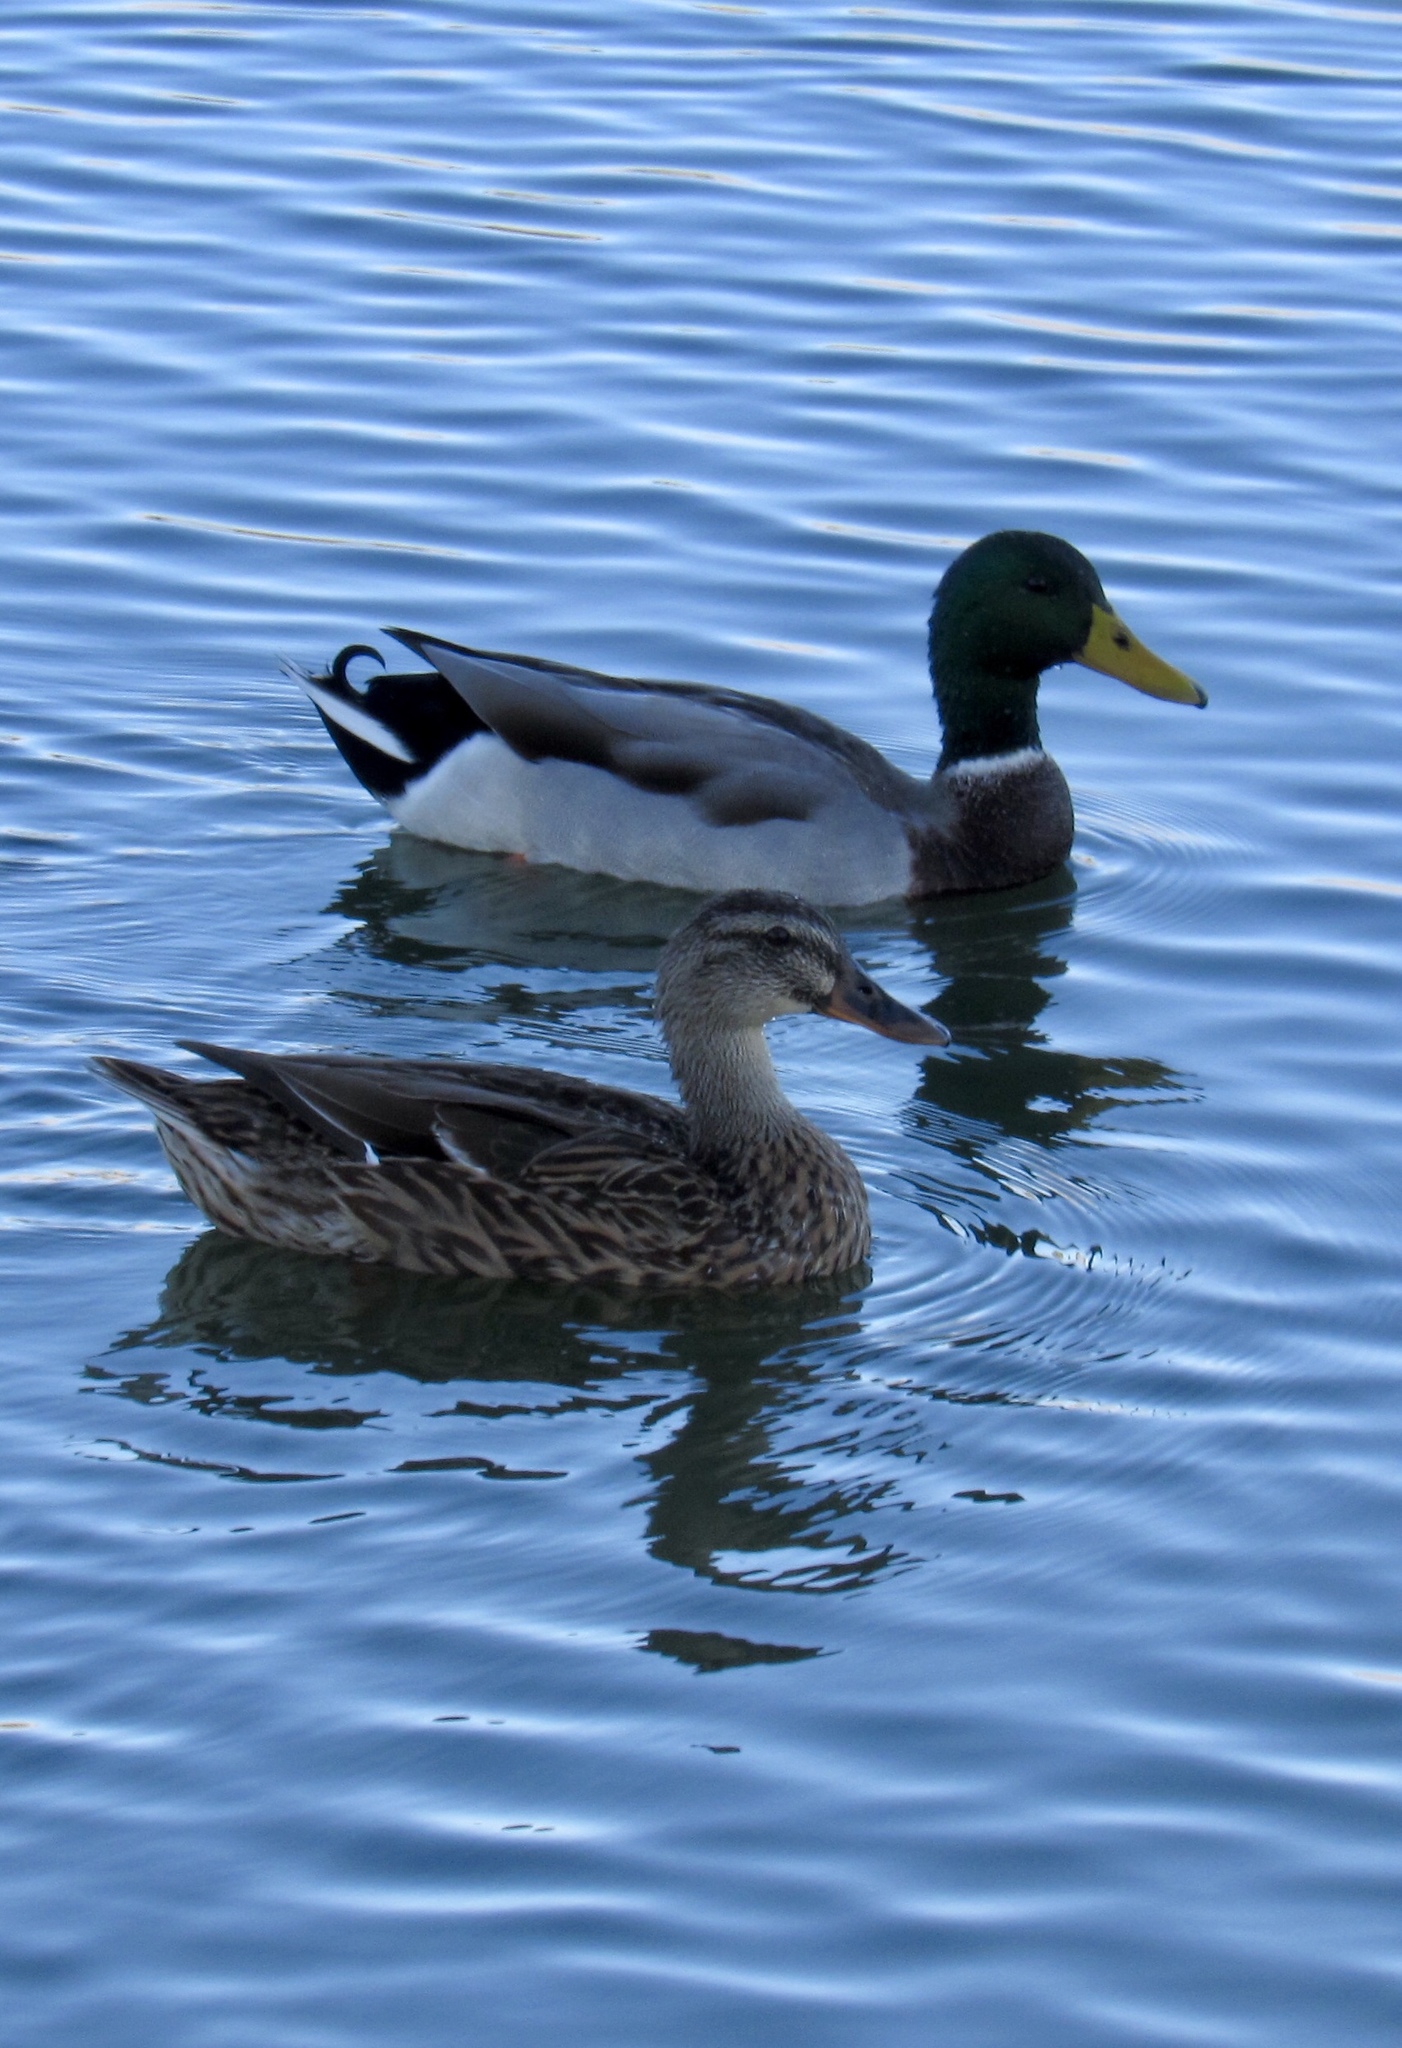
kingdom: Animalia
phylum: Chordata
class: Aves
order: Anseriformes
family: Anatidae
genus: Anas
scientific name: Anas platyrhynchos
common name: Mallard
